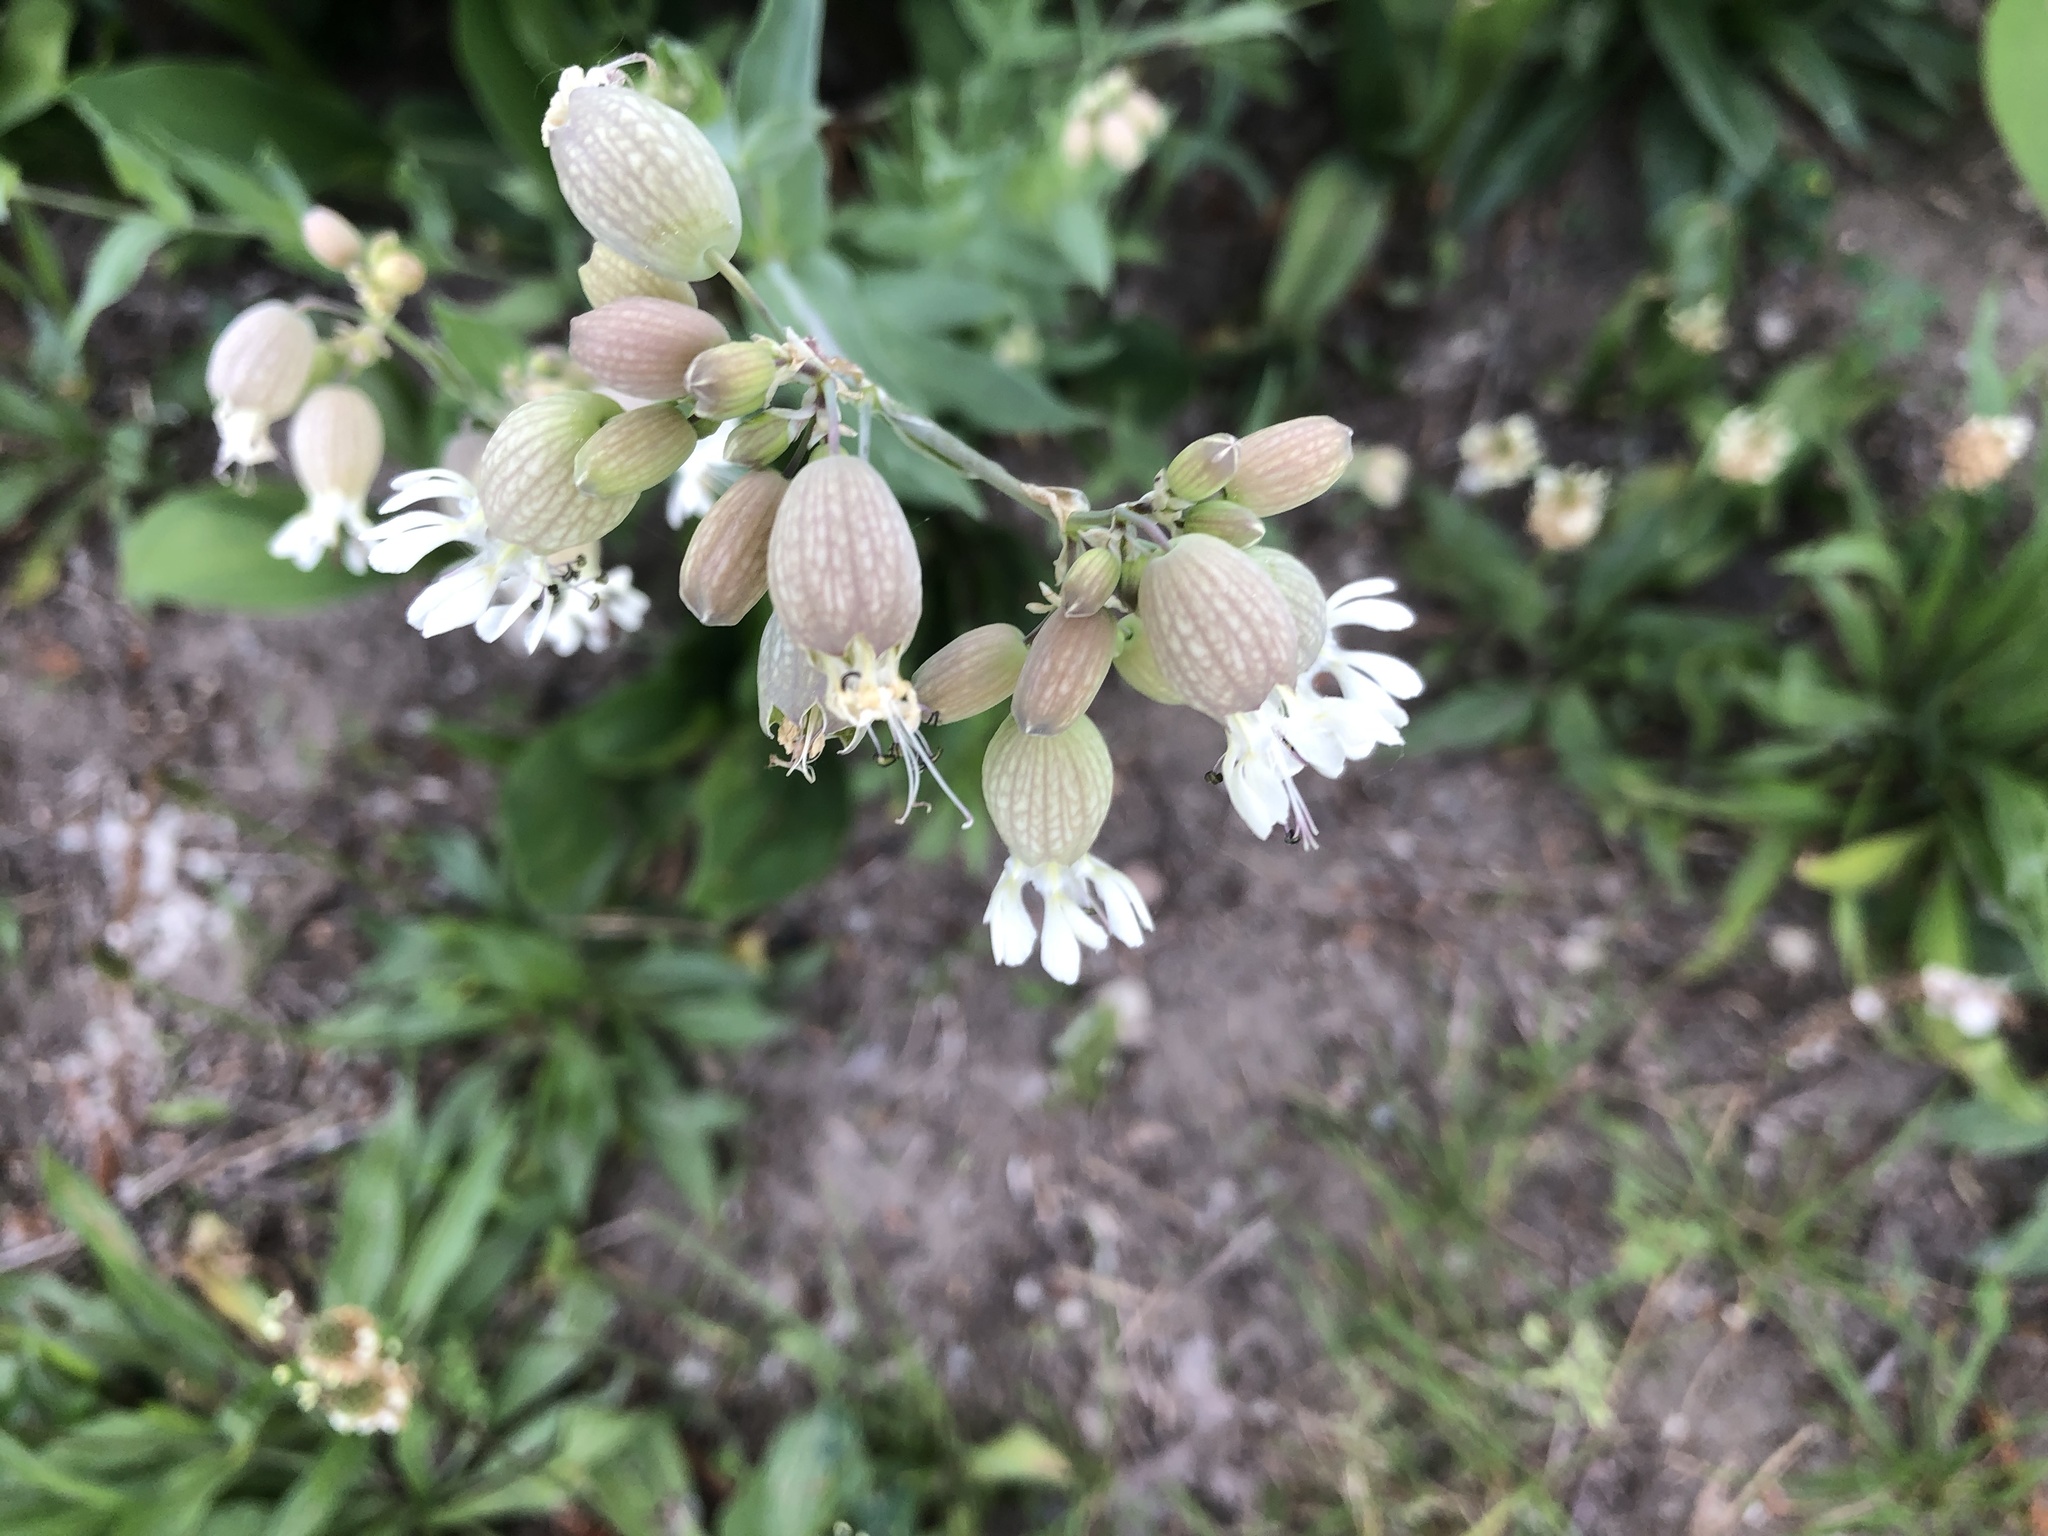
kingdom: Plantae
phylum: Tracheophyta
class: Magnoliopsida
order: Caryophyllales
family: Caryophyllaceae
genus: Silene
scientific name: Silene vulgaris
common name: Bladder campion
